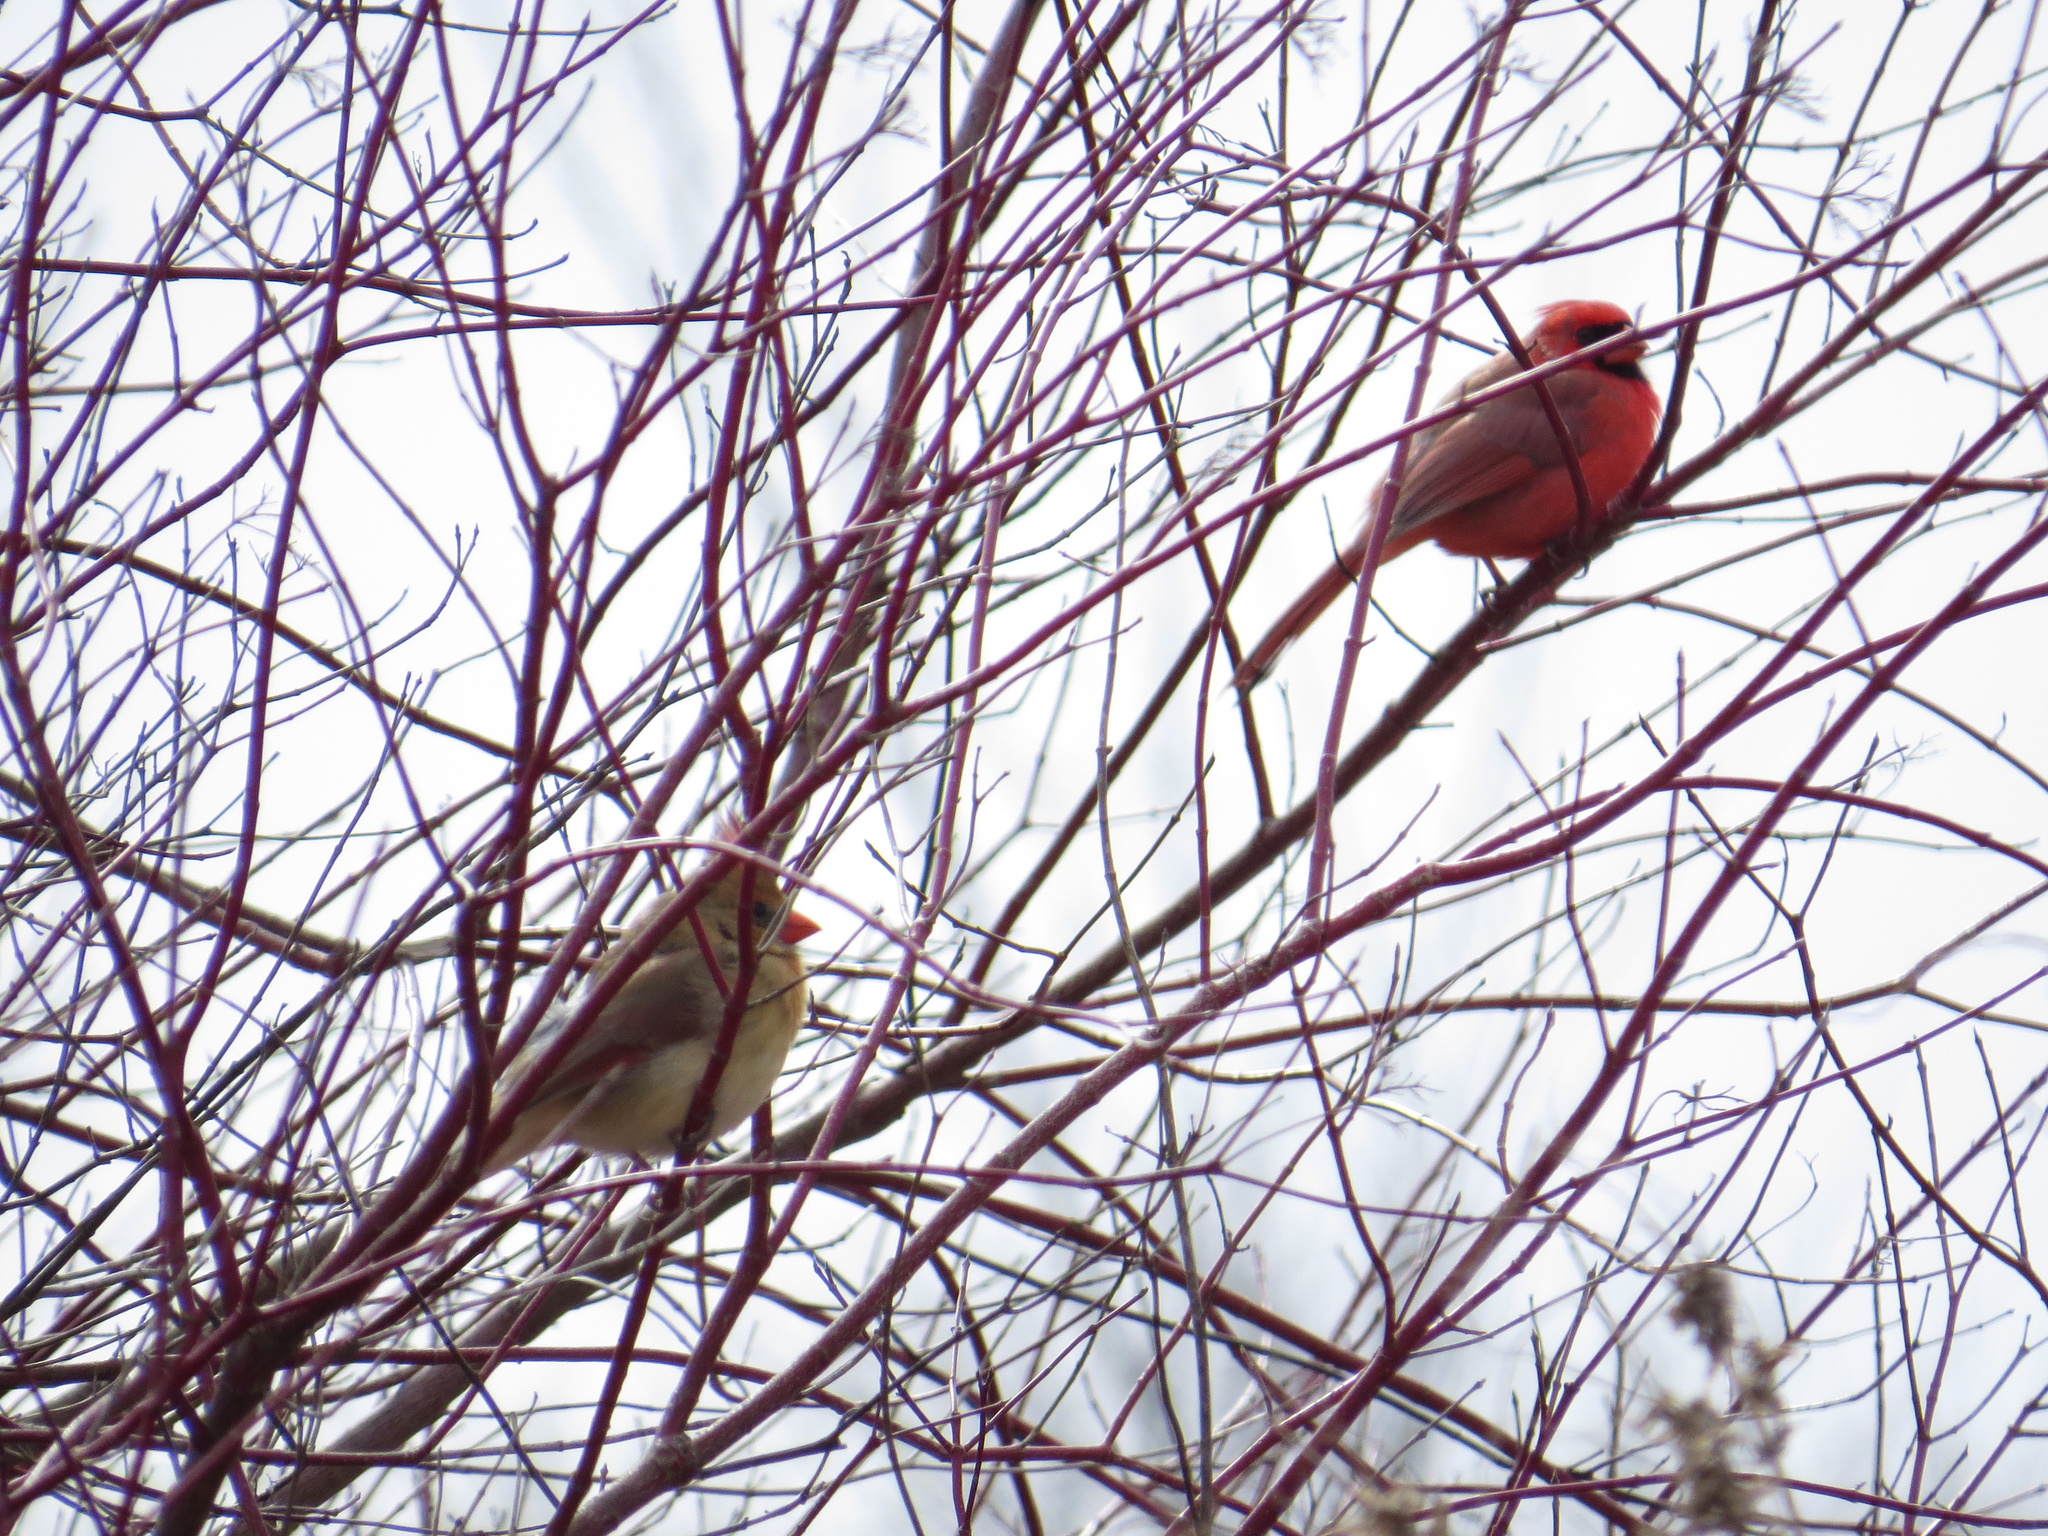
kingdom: Animalia
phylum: Chordata
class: Aves
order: Passeriformes
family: Cardinalidae
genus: Cardinalis
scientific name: Cardinalis cardinalis
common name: Northern cardinal
